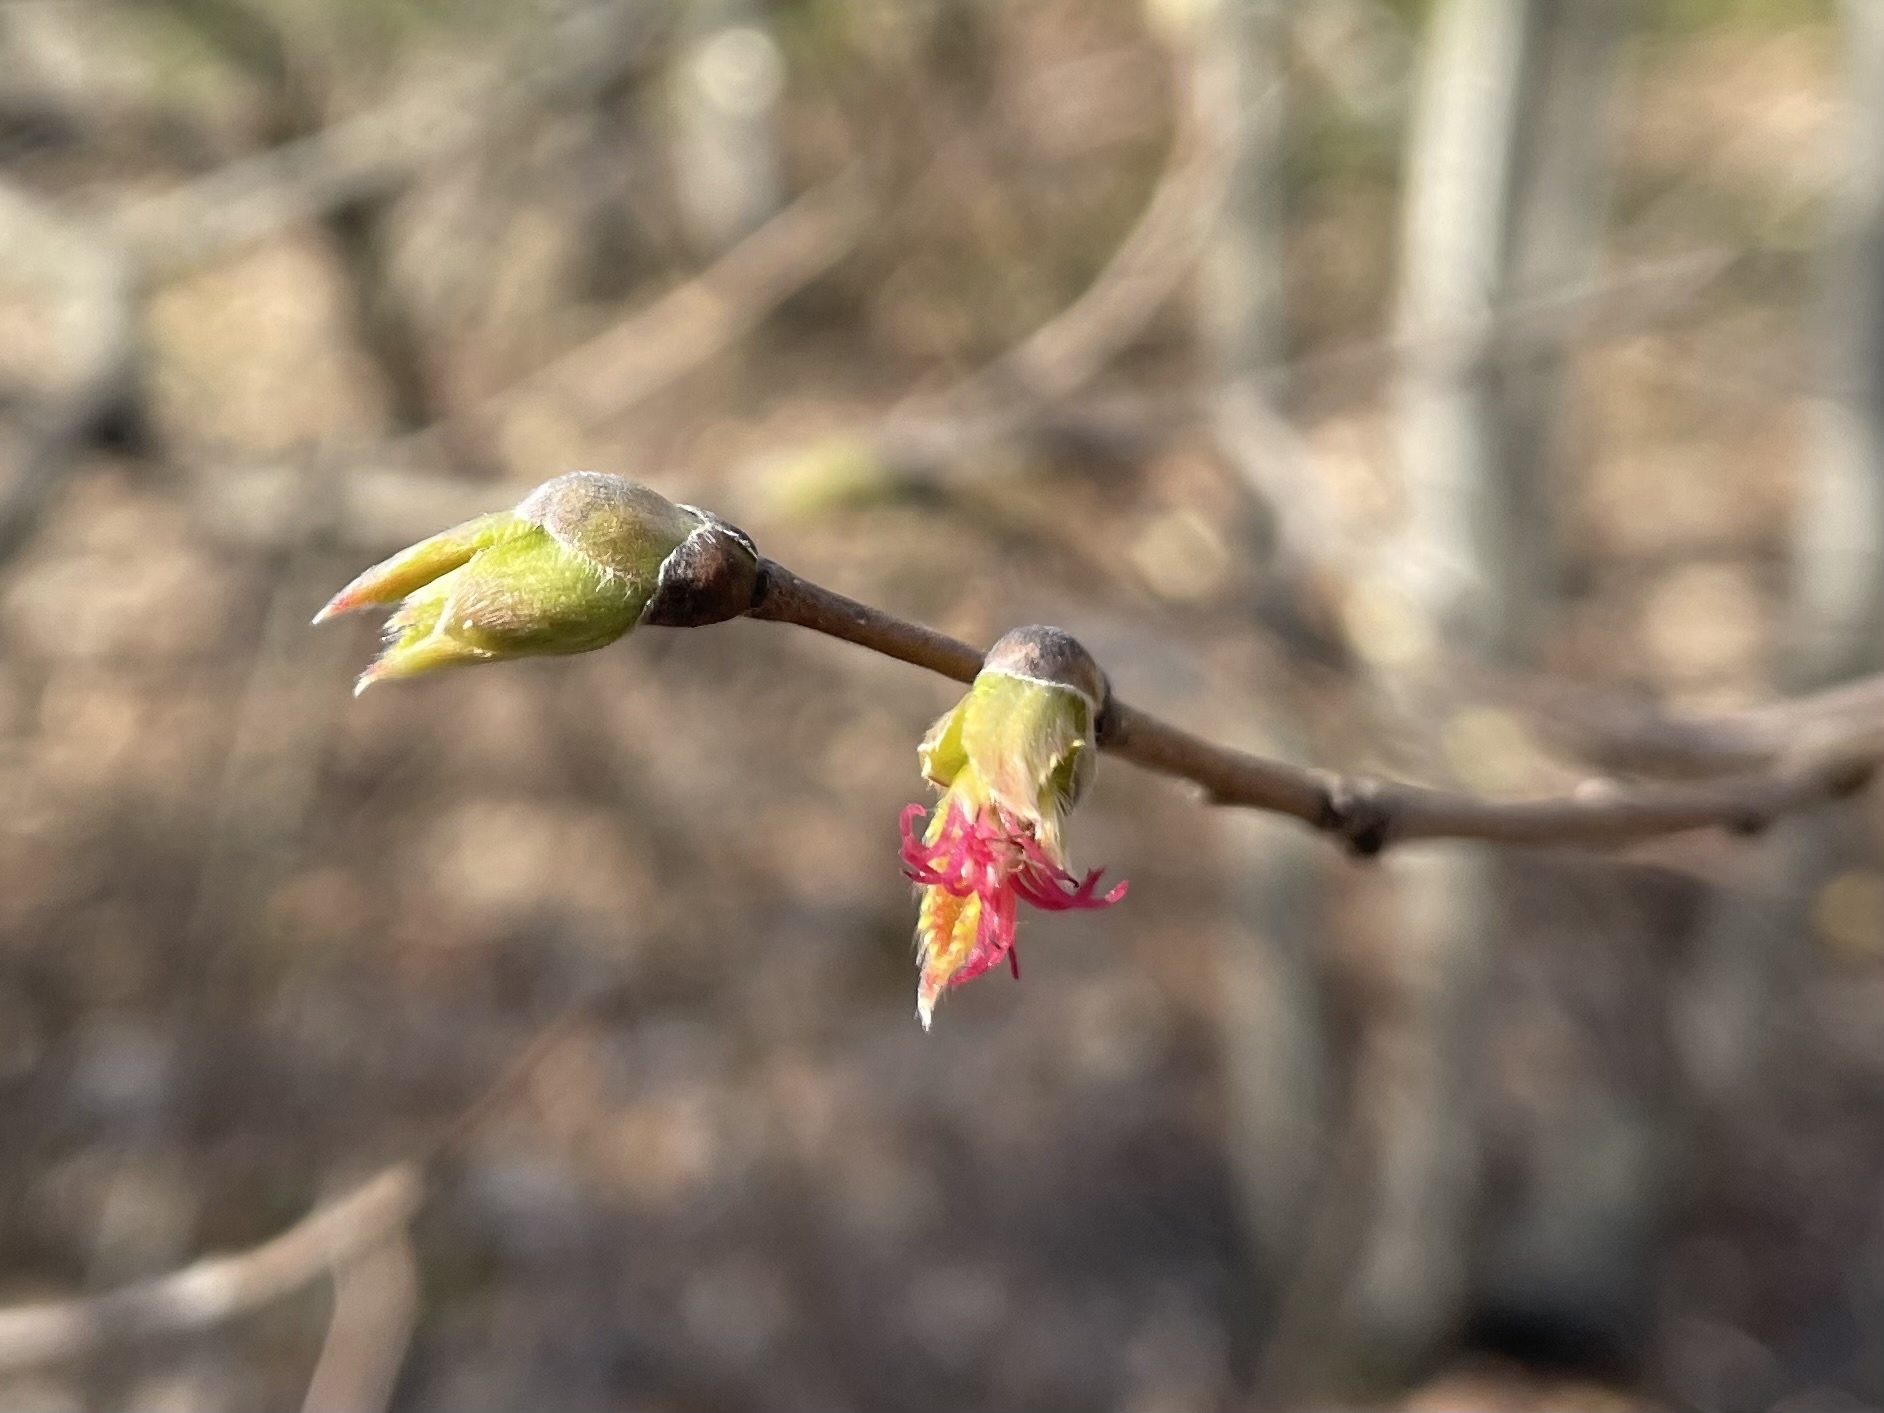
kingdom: Plantae
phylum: Tracheophyta
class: Magnoliopsida
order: Fagales
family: Betulaceae
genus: Corylus
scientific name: Corylus cornuta
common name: Beaked hazel
